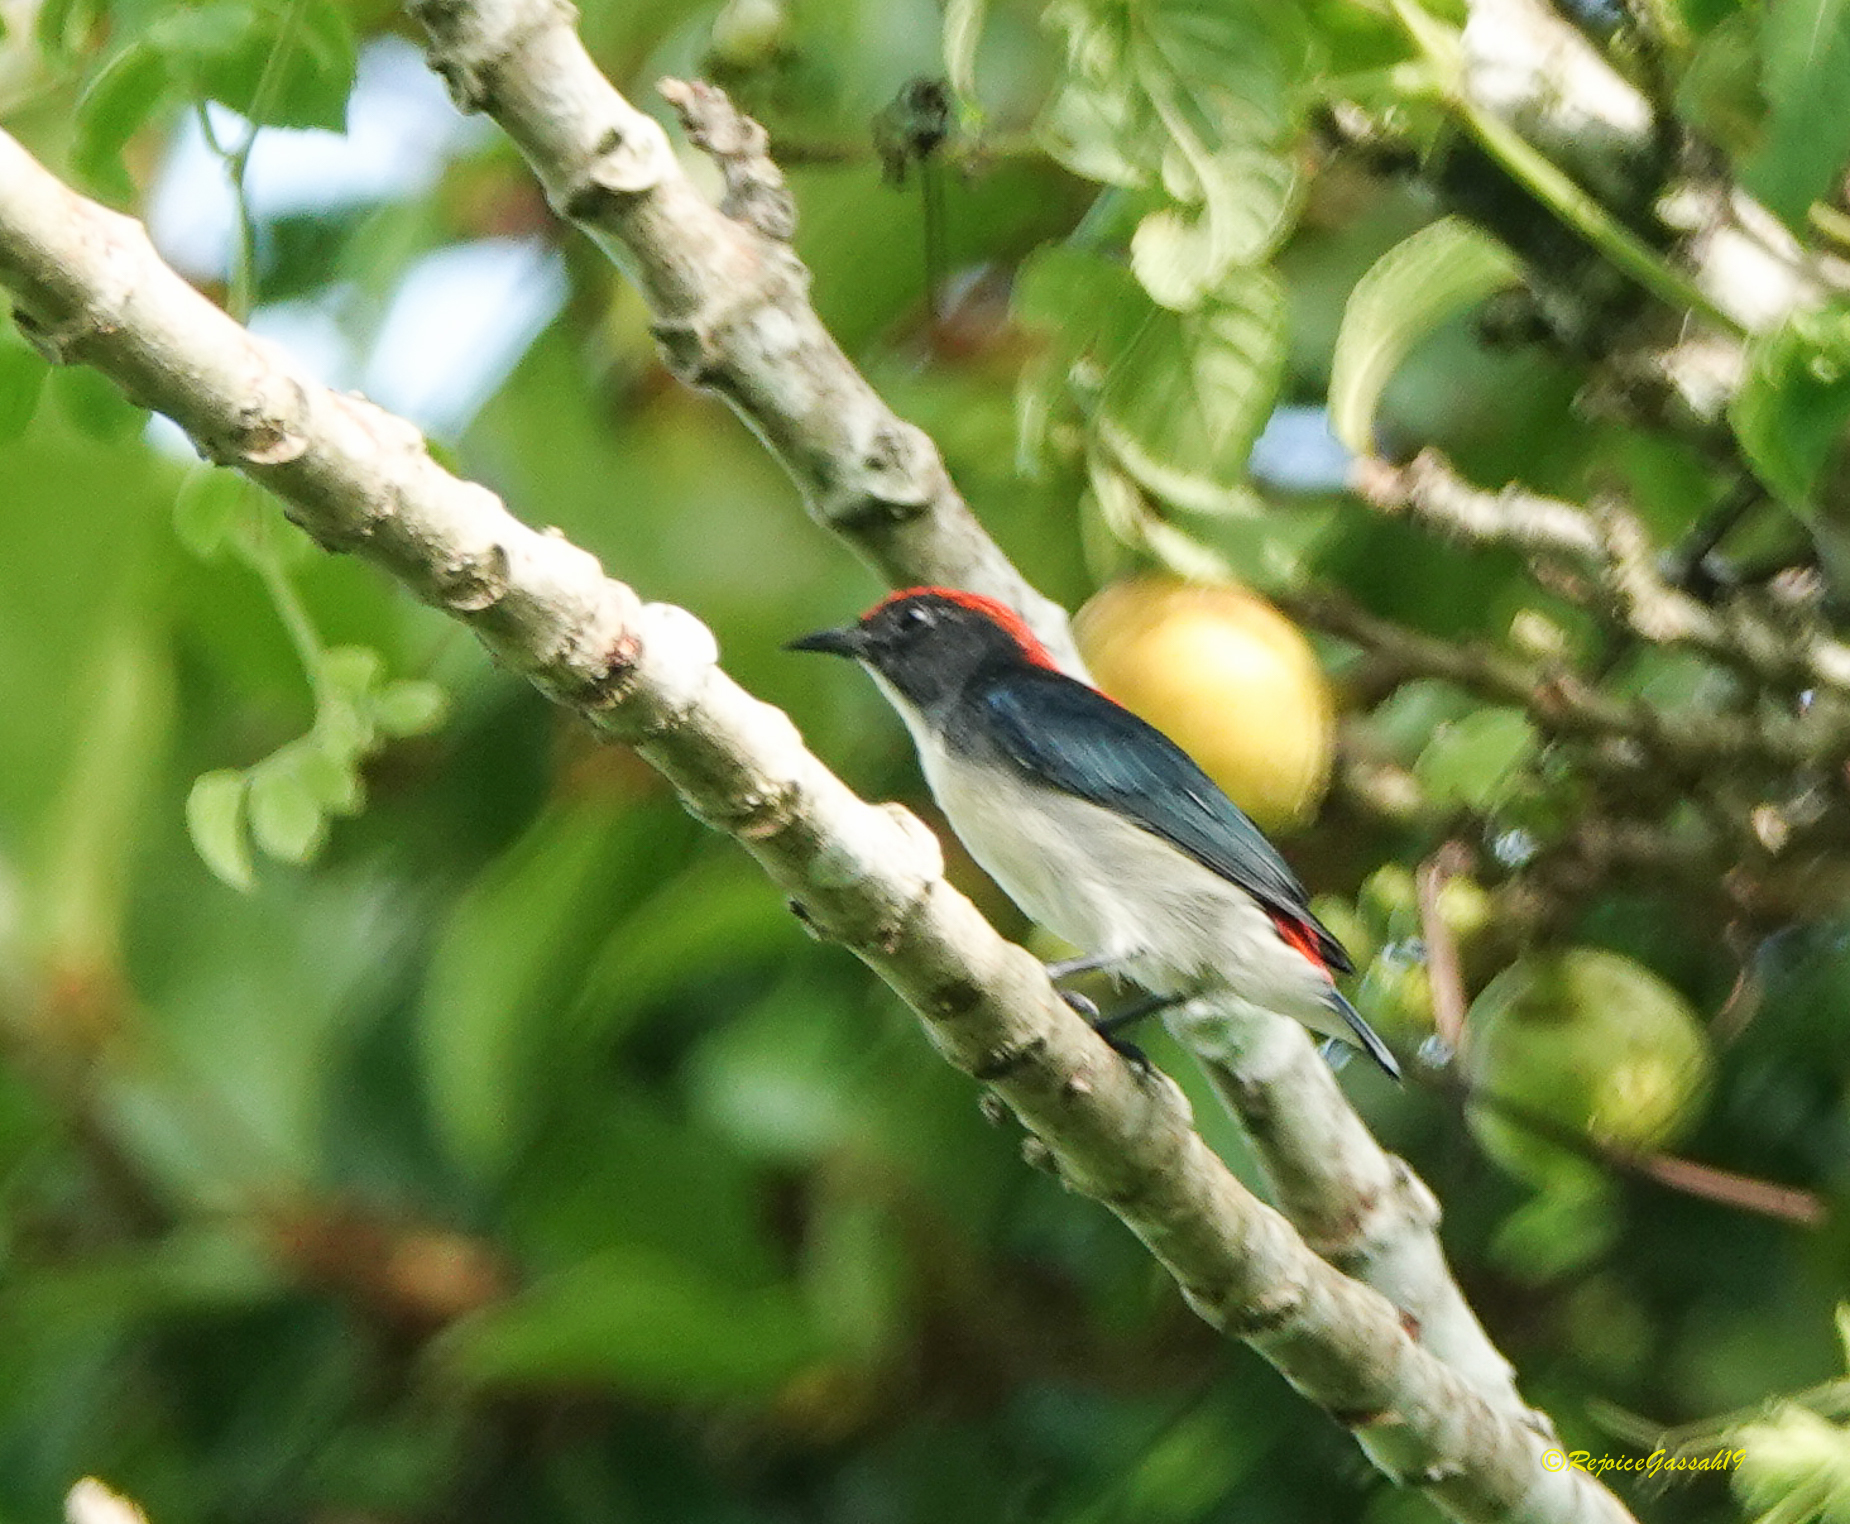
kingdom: Animalia
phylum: Chordata
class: Aves
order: Passeriformes
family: Dicaeidae
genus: Dicaeum
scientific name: Dicaeum cruentatum
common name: Scarlet-backed flowerpecker
